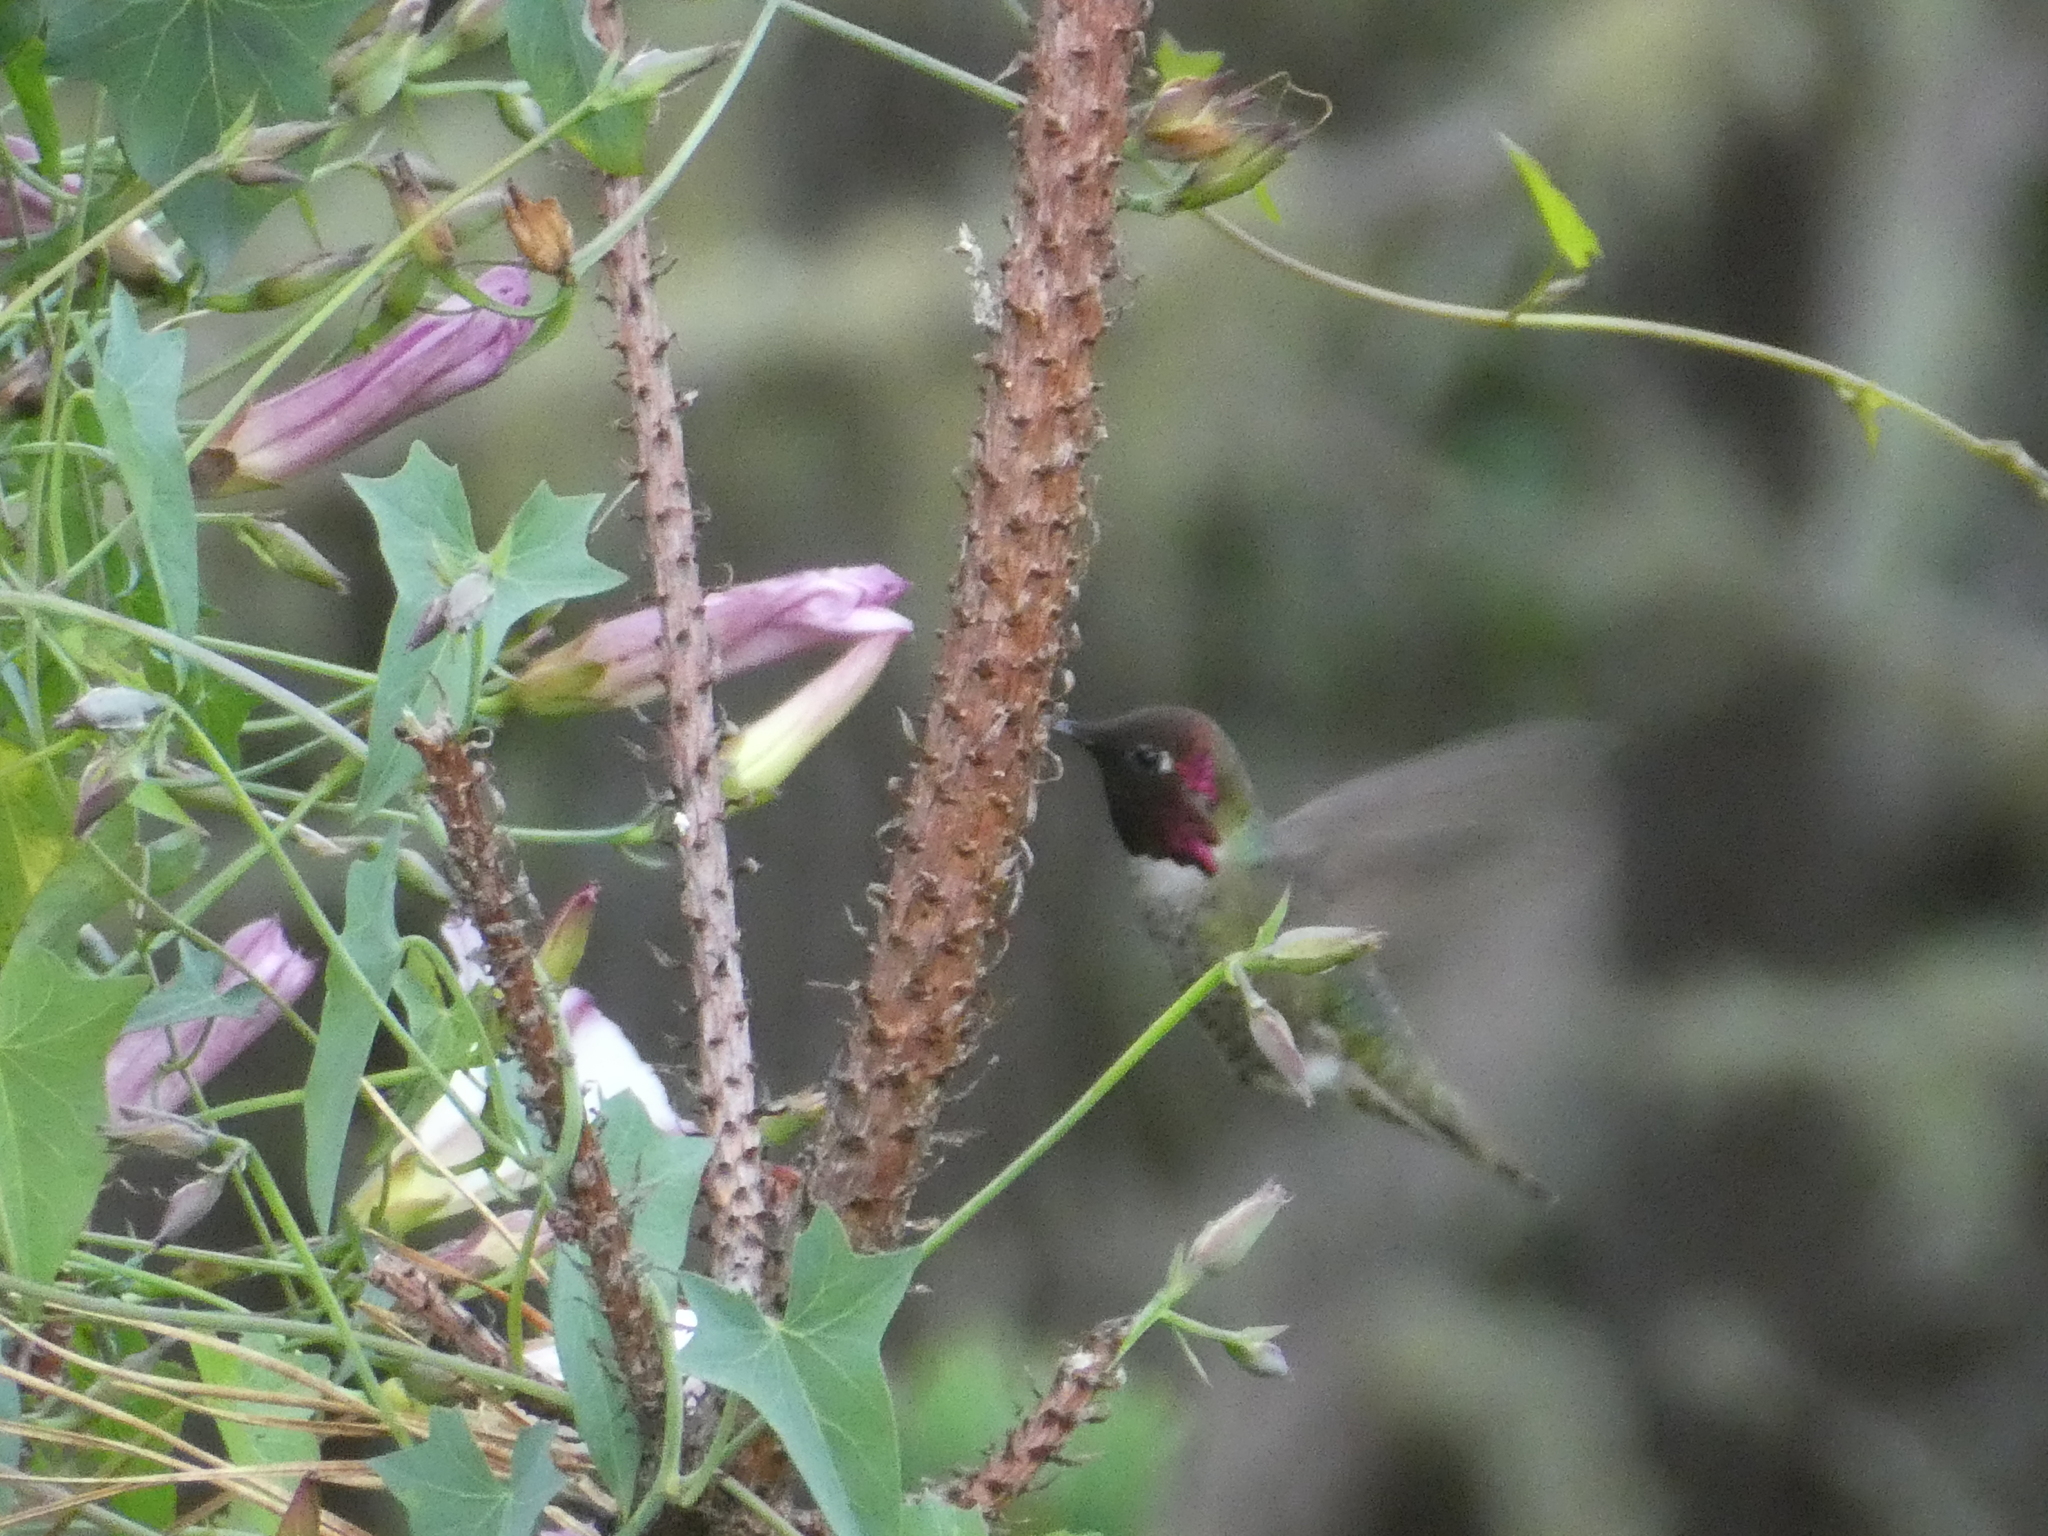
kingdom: Animalia
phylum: Chordata
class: Aves
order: Apodiformes
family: Trochilidae
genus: Calypte
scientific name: Calypte anna
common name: Anna's hummingbird
